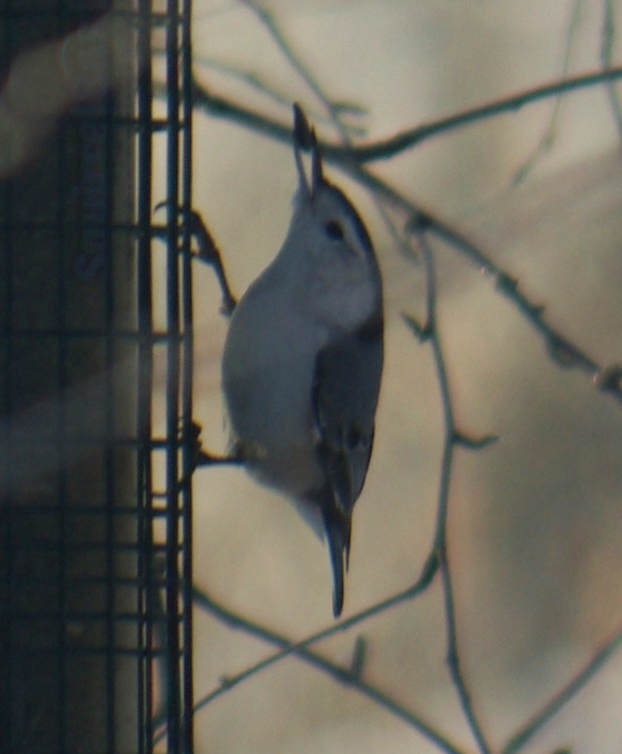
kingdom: Animalia
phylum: Chordata
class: Aves
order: Passeriformes
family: Sittidae
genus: Sitta
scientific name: Sitta carolinensis
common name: White-breasted nuthatch
